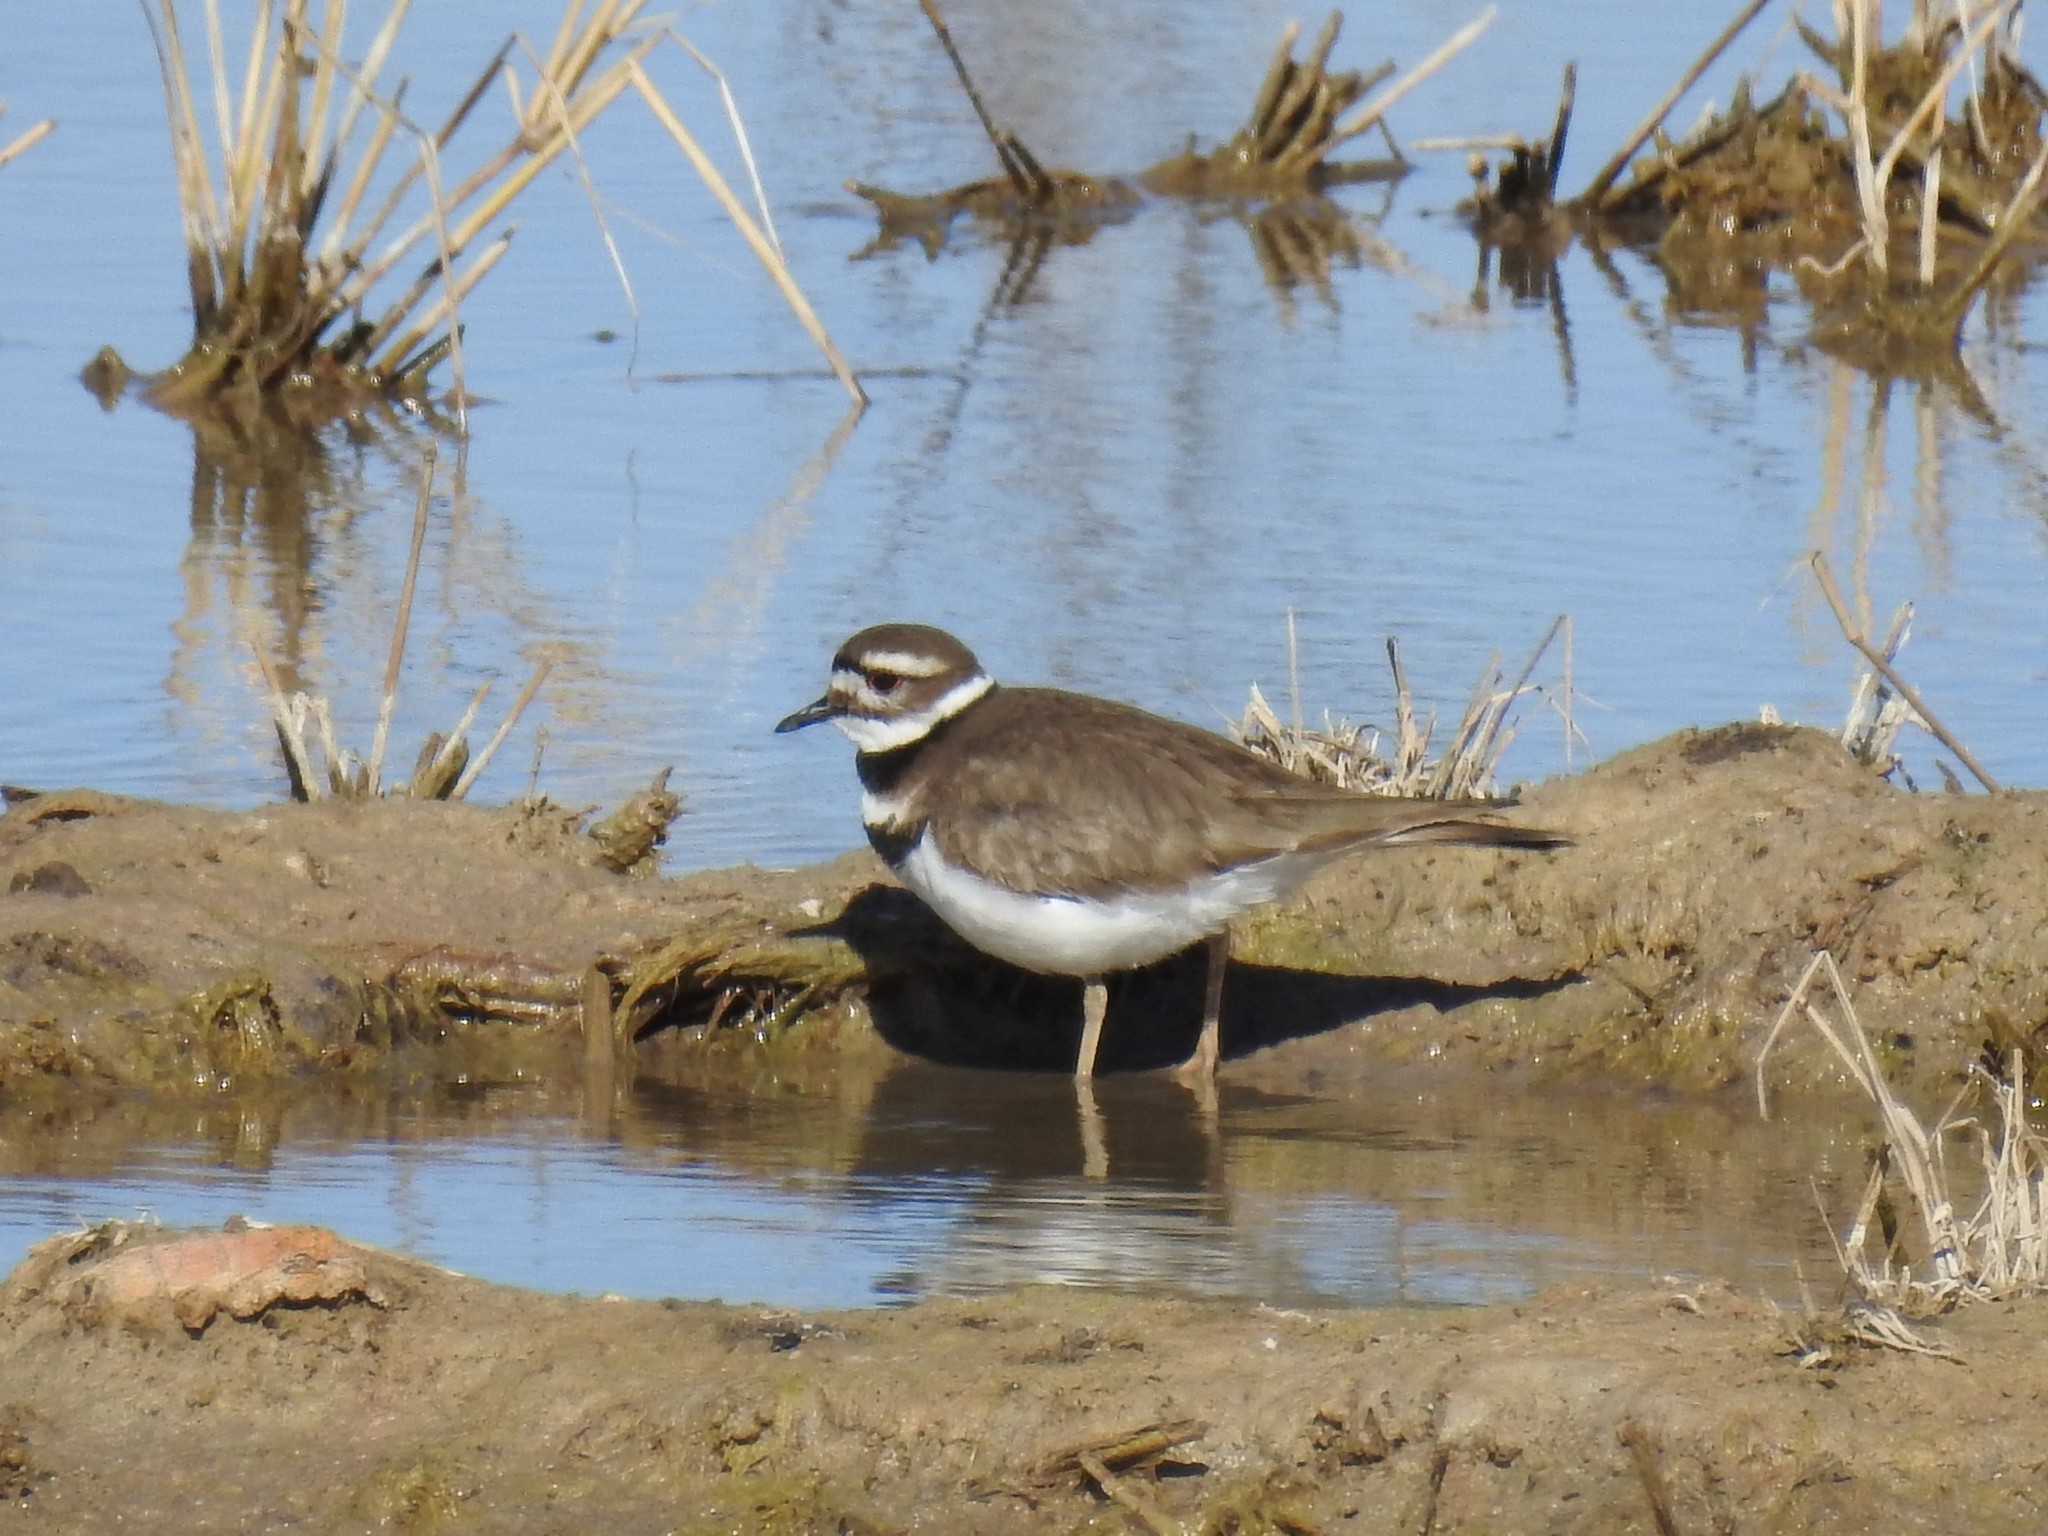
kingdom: Animalia
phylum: Chordata
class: Aves
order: Charadriiformes
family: Charadriidae
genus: Charadrius
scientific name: Charadrius vociferus
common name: Killdeer
